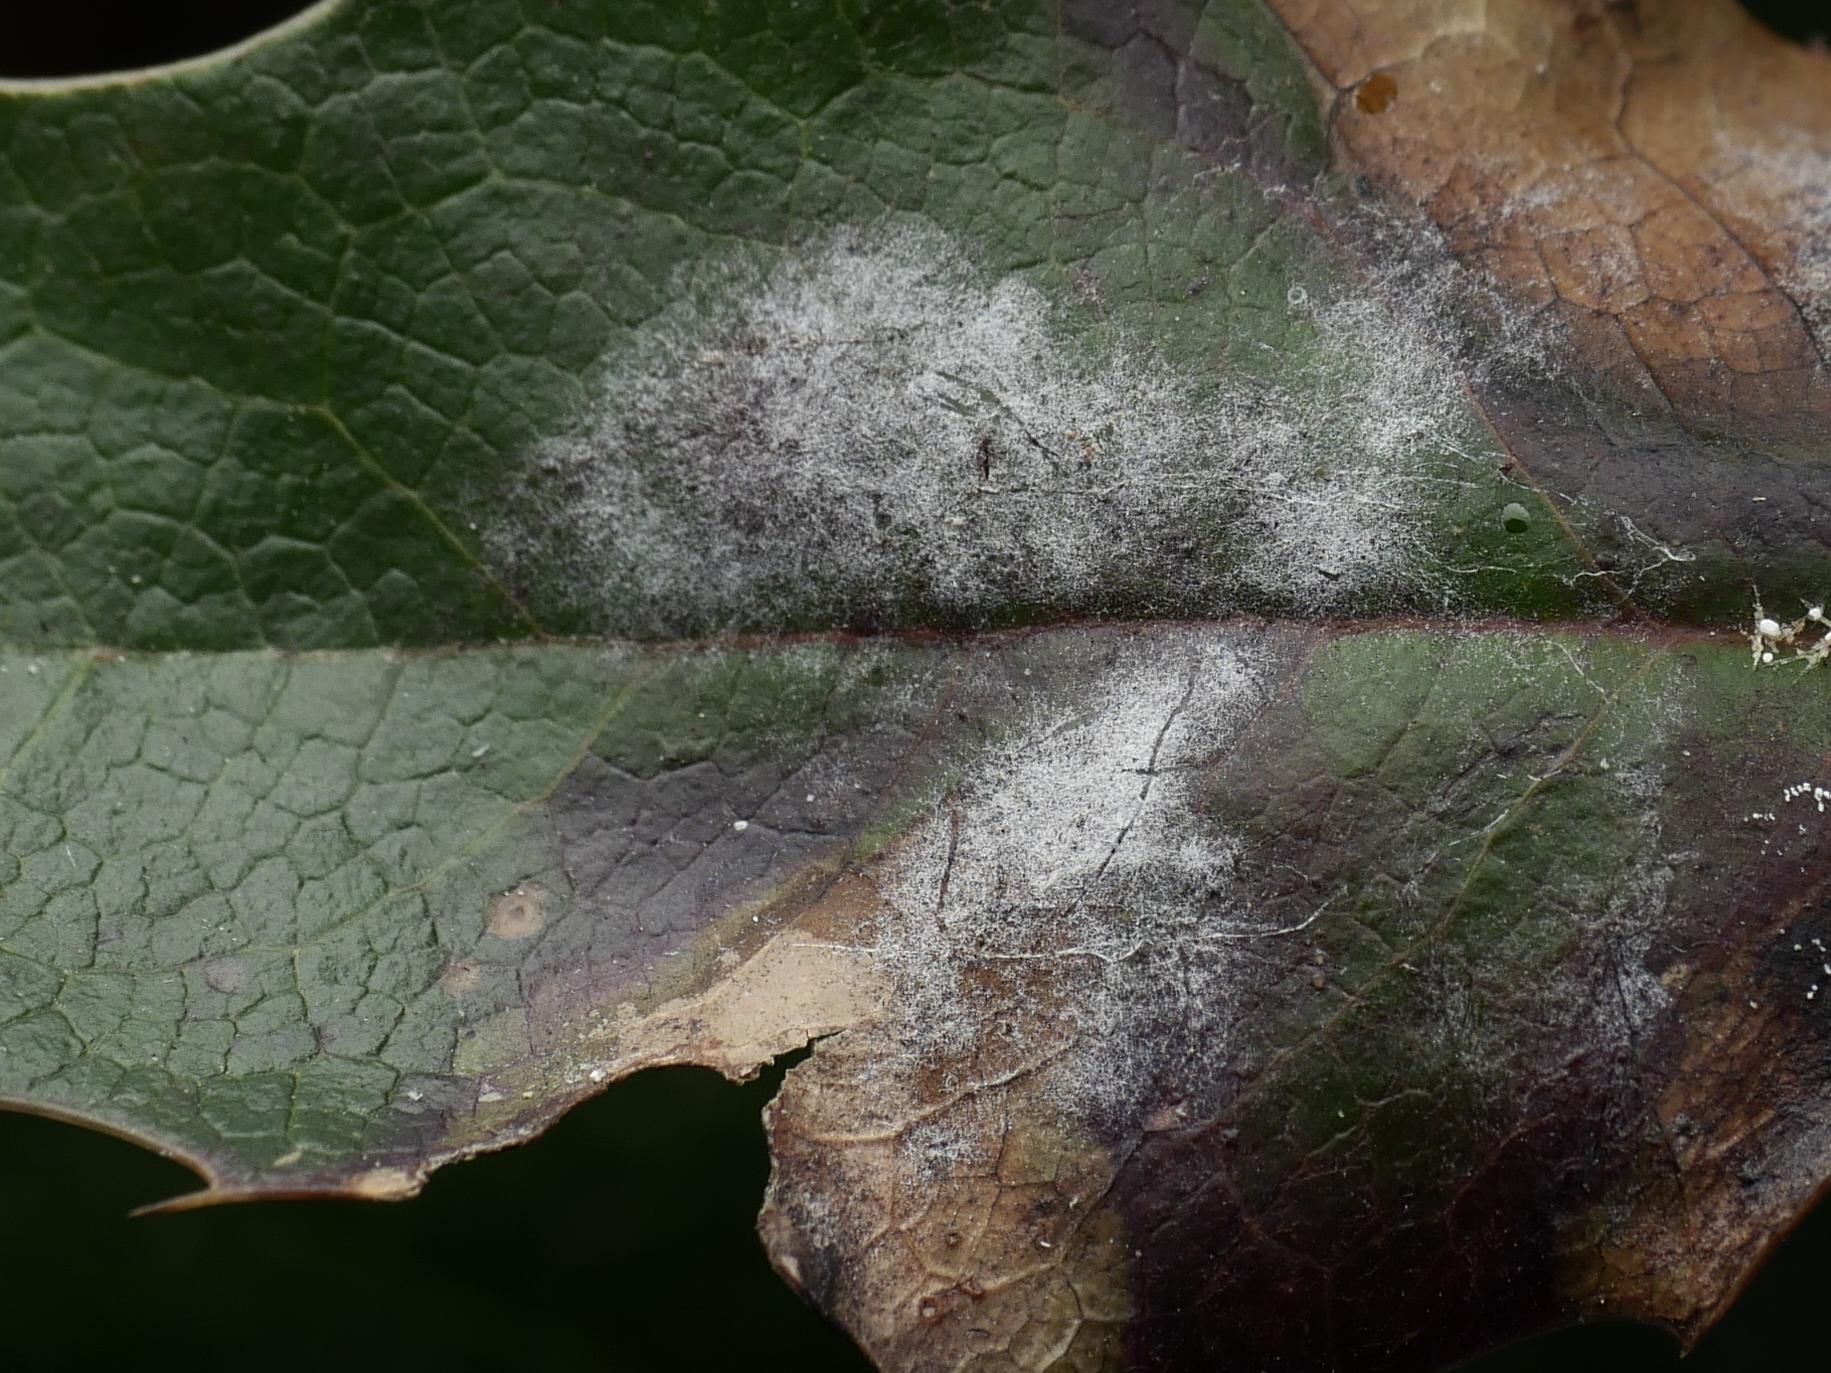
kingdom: Fungi
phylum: Ascomycota
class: Leotiomycetes
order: Helotiales
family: Erysiphaceae
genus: Erysiphe
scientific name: Erysiphe berberidis
